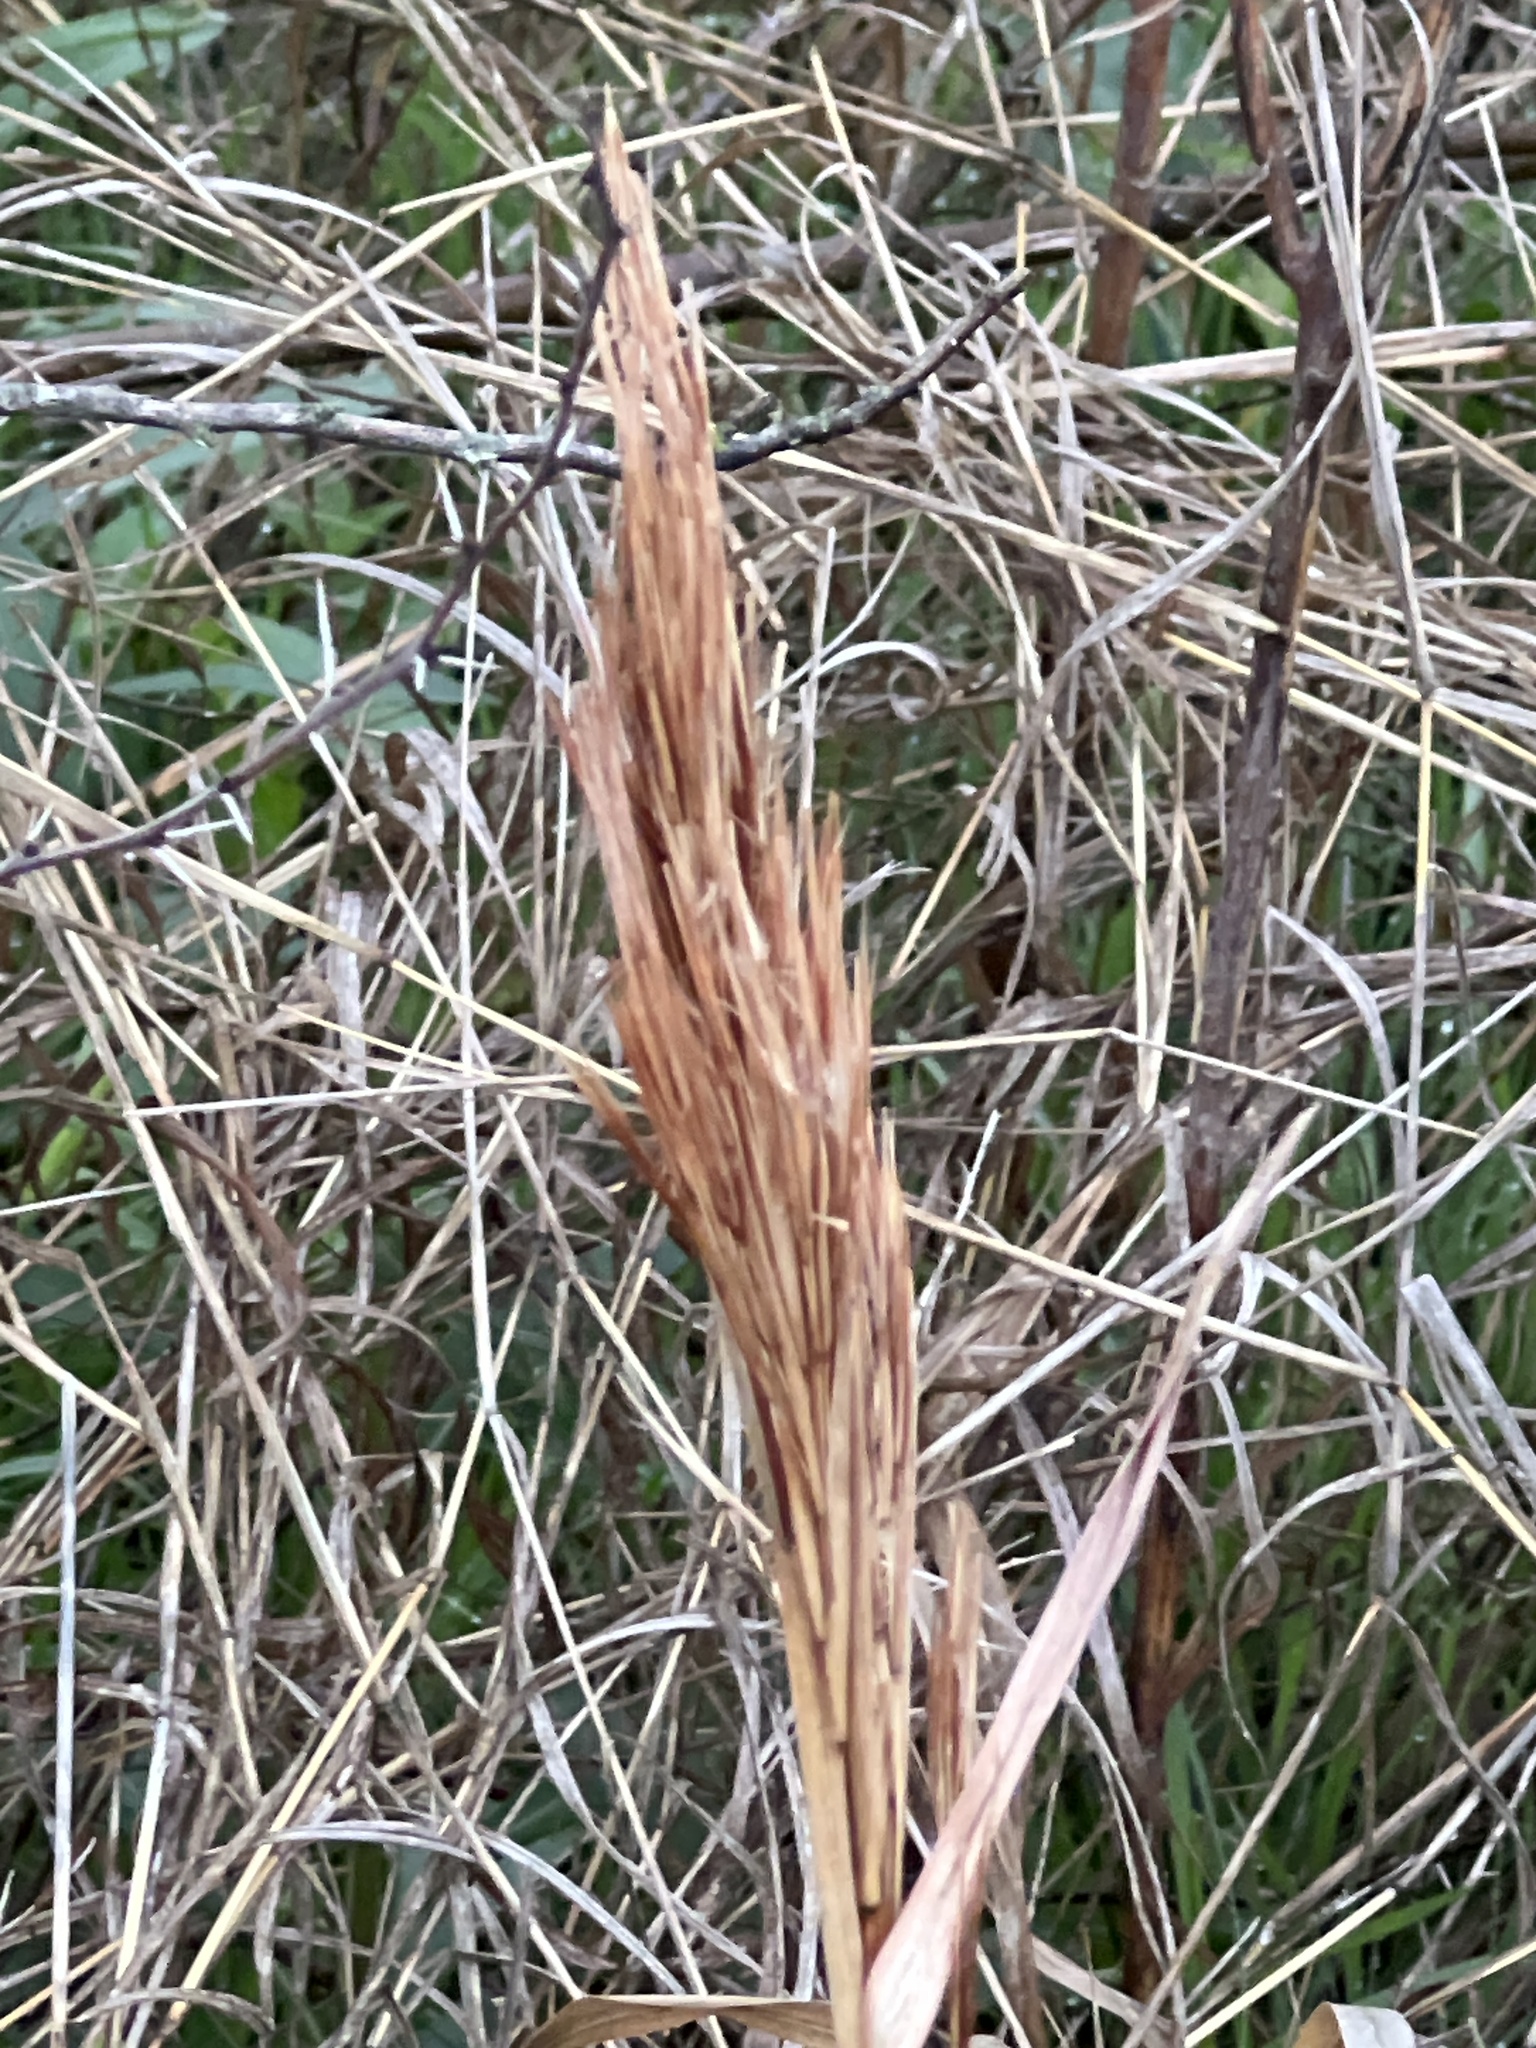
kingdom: Plantae
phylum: Tracheophyta
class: Liliopsida
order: Poales
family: Poaceae
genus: Andropogon
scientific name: Andropogon tenuispatheus
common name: Bushy bluestem
